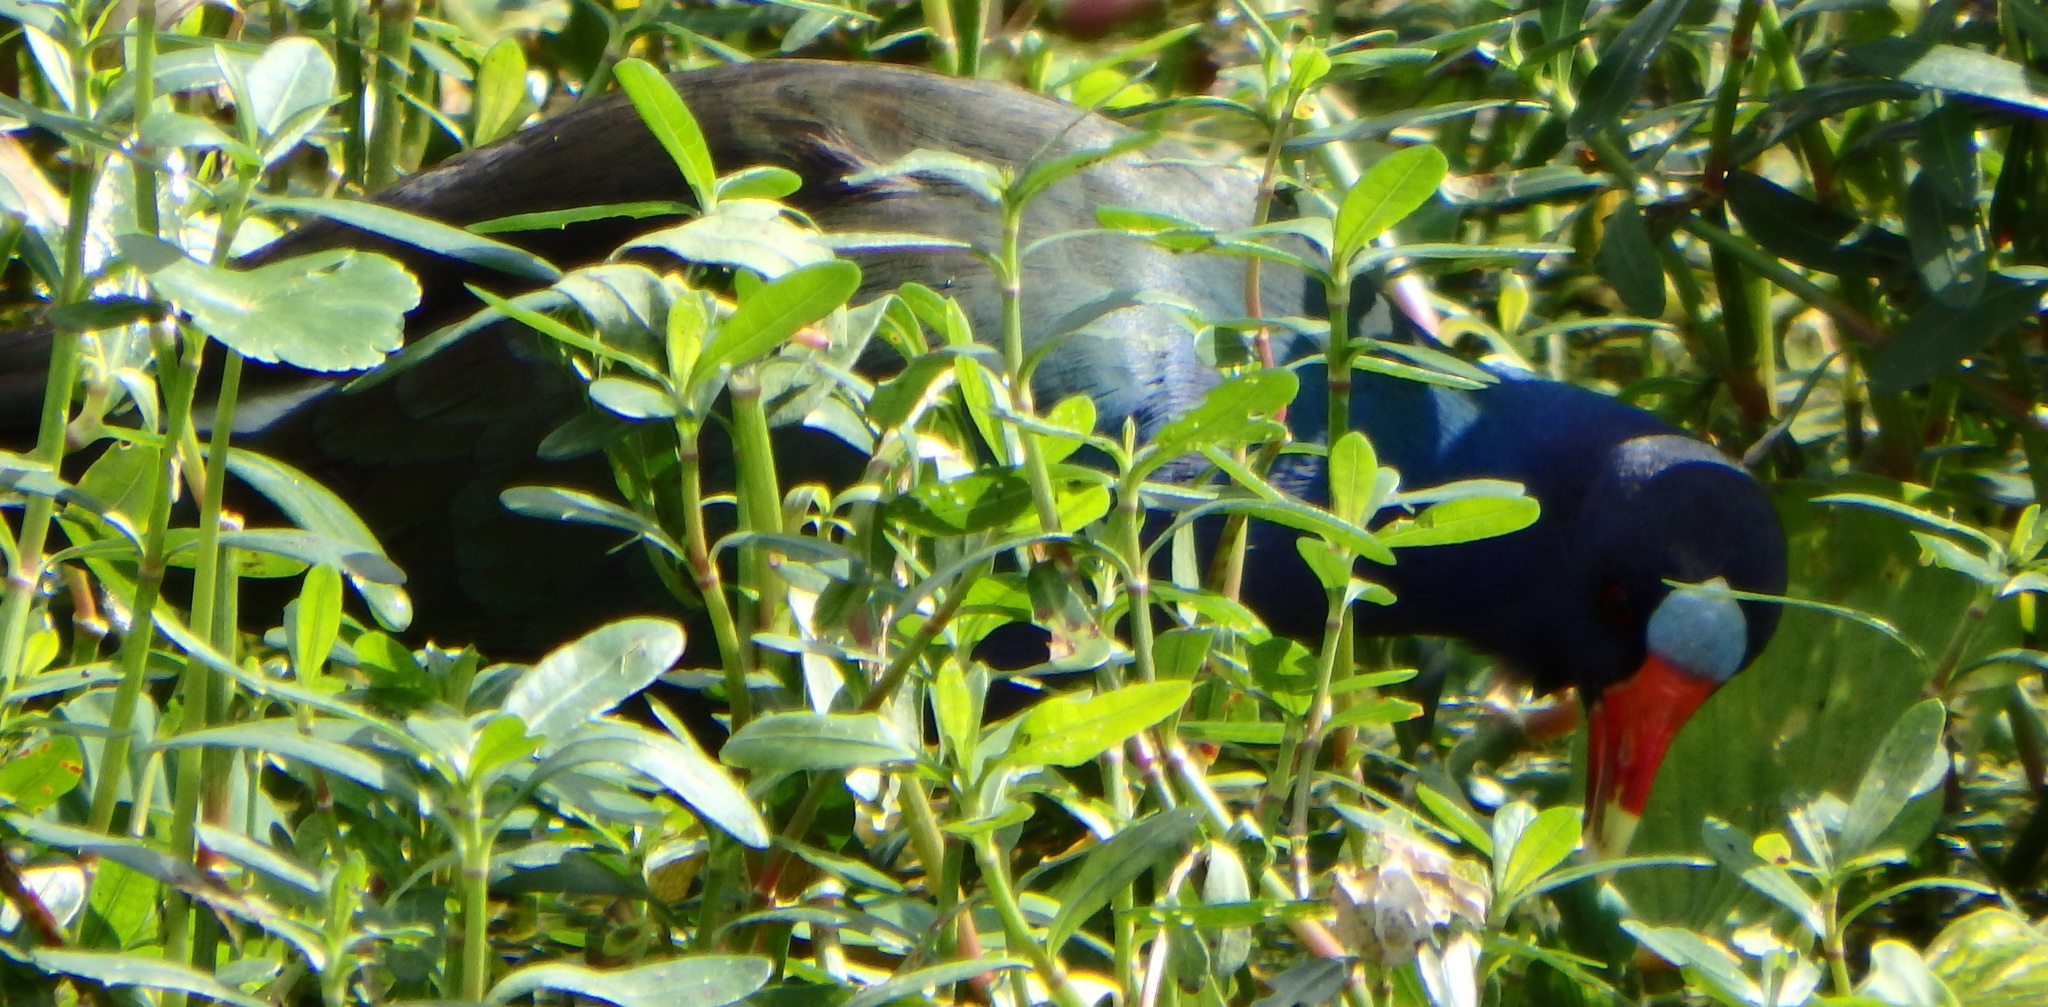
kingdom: Animalia
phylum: Chordata
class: Aves
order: Gruiformes
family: Rallidae
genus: Porphyrio
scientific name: Porphyrio martinica
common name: Purple gallinule
